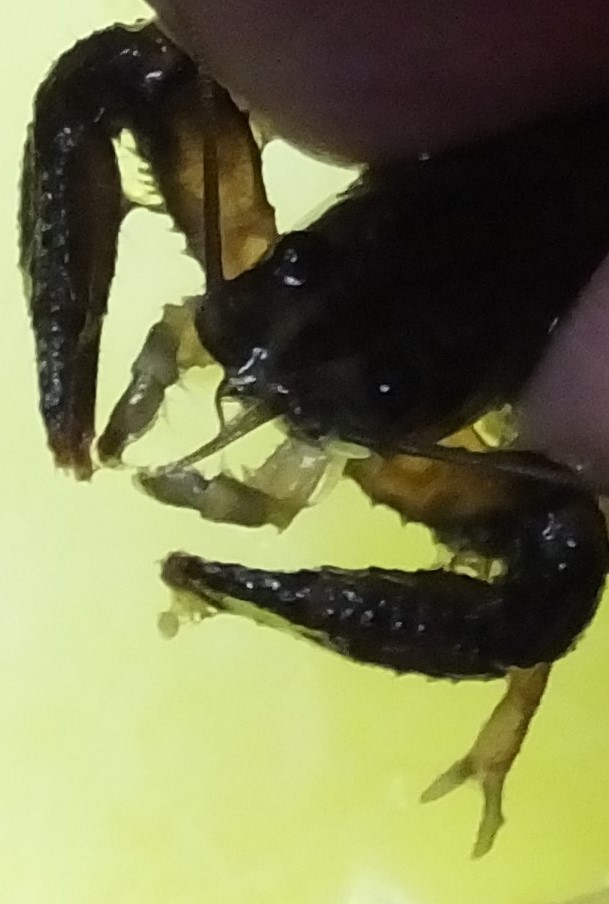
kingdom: Animalia
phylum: Arthropoda
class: Malacostraca
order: Decapoda
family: Parastacidae
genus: Paranephrops
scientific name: Paranephrops planifrons
